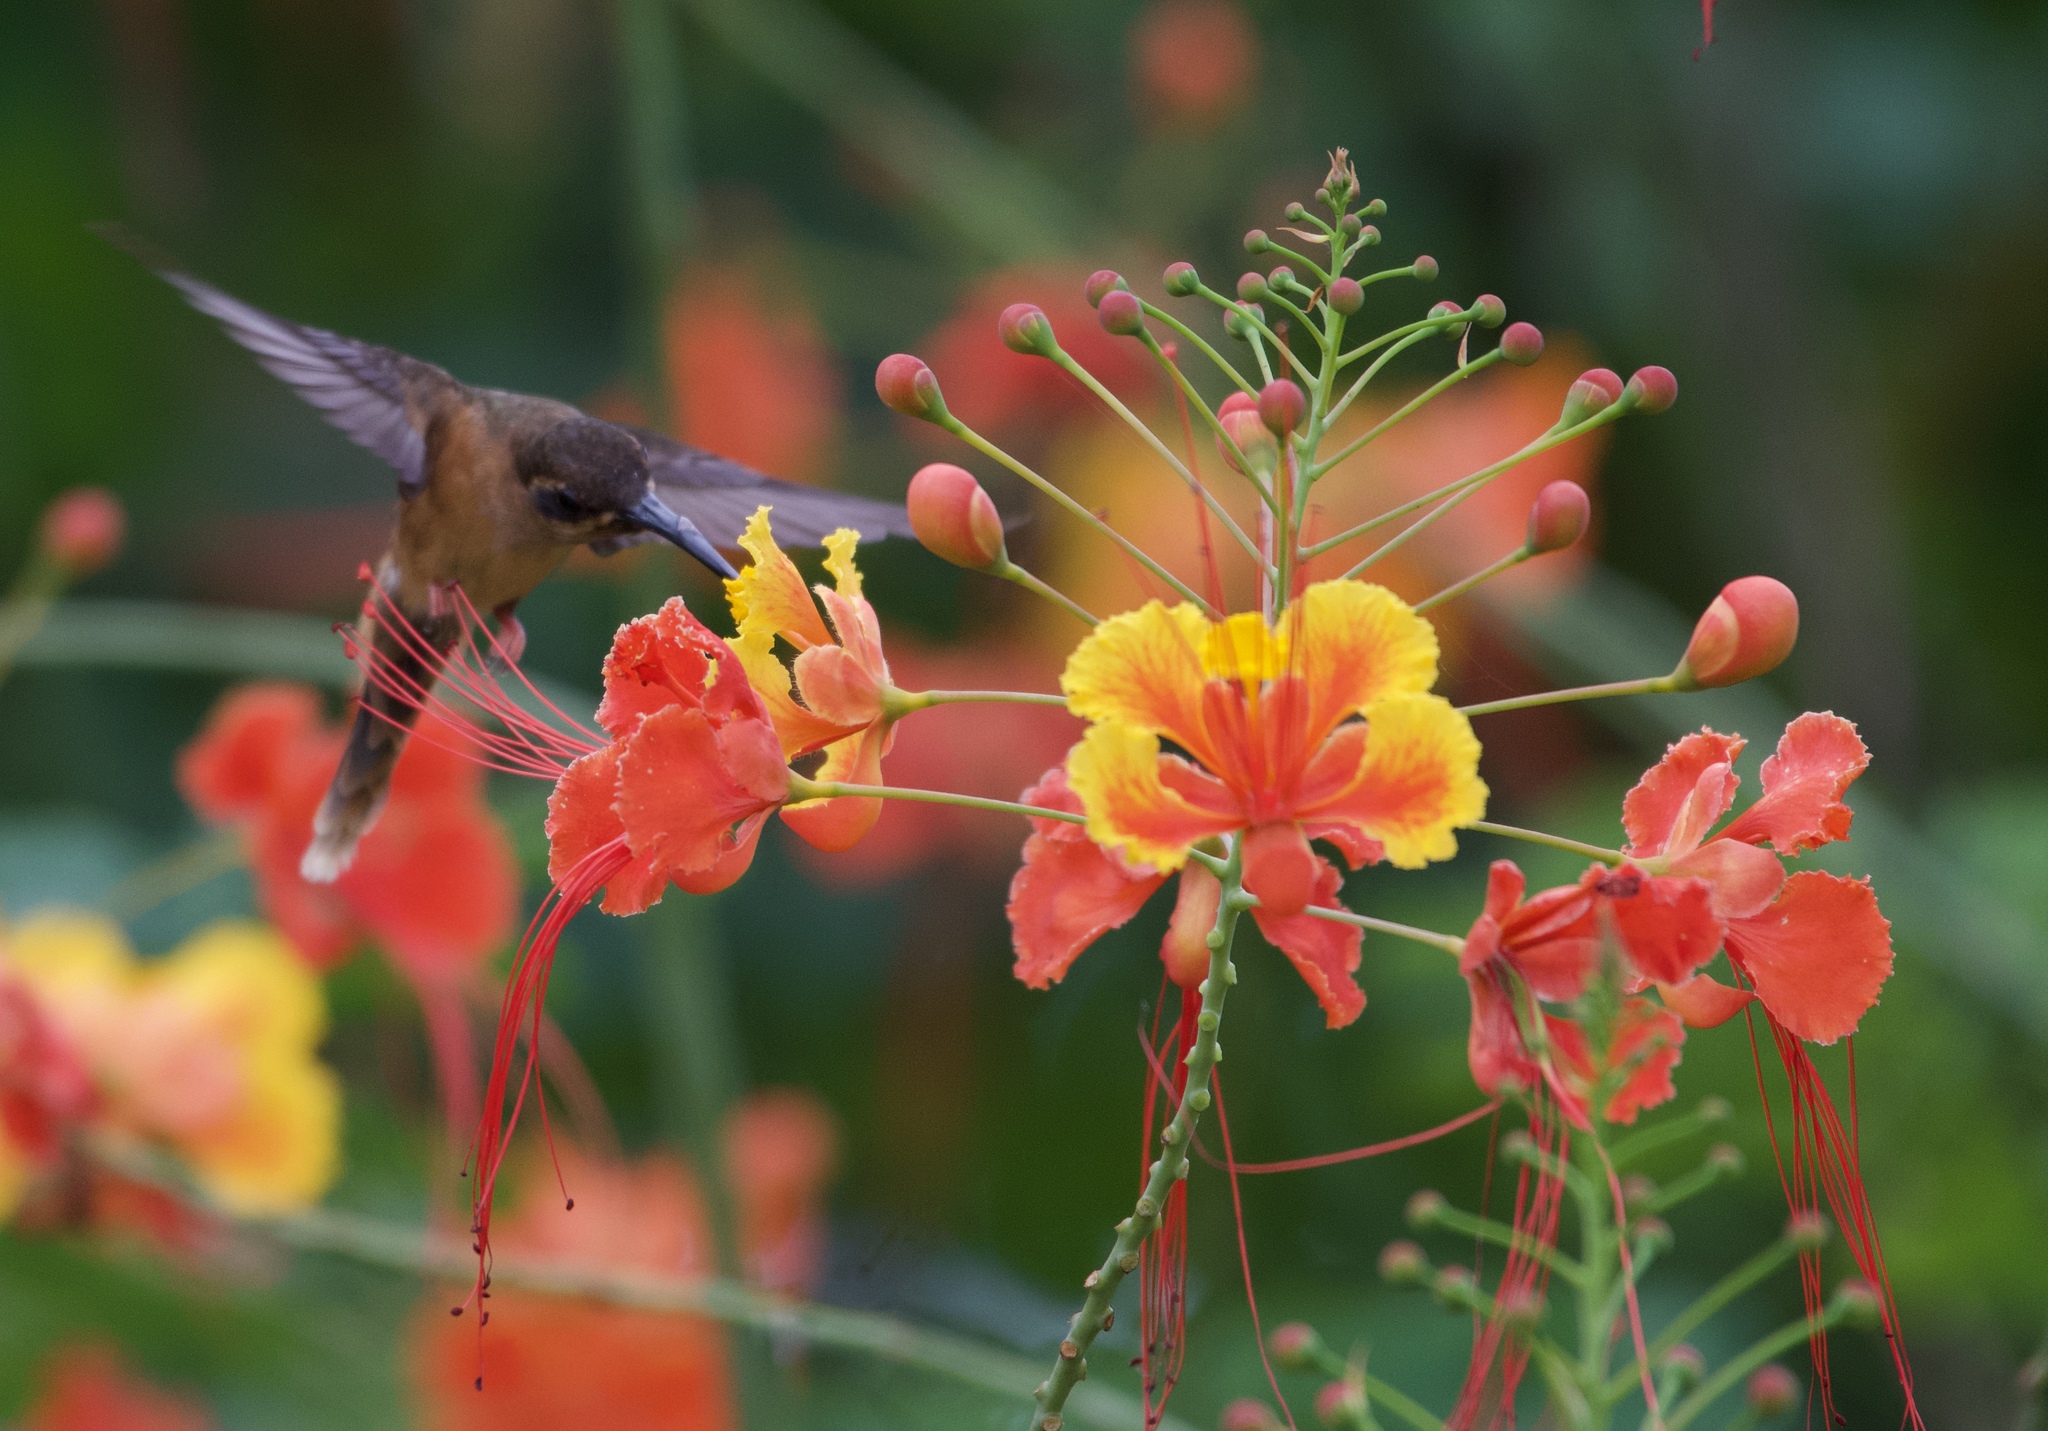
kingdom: Animalia
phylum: Chordata
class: Aves
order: Apodiformes
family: Trochilidae
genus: Phaethornis
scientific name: Phaethornis striigularis
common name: Stripe-throated hermit
